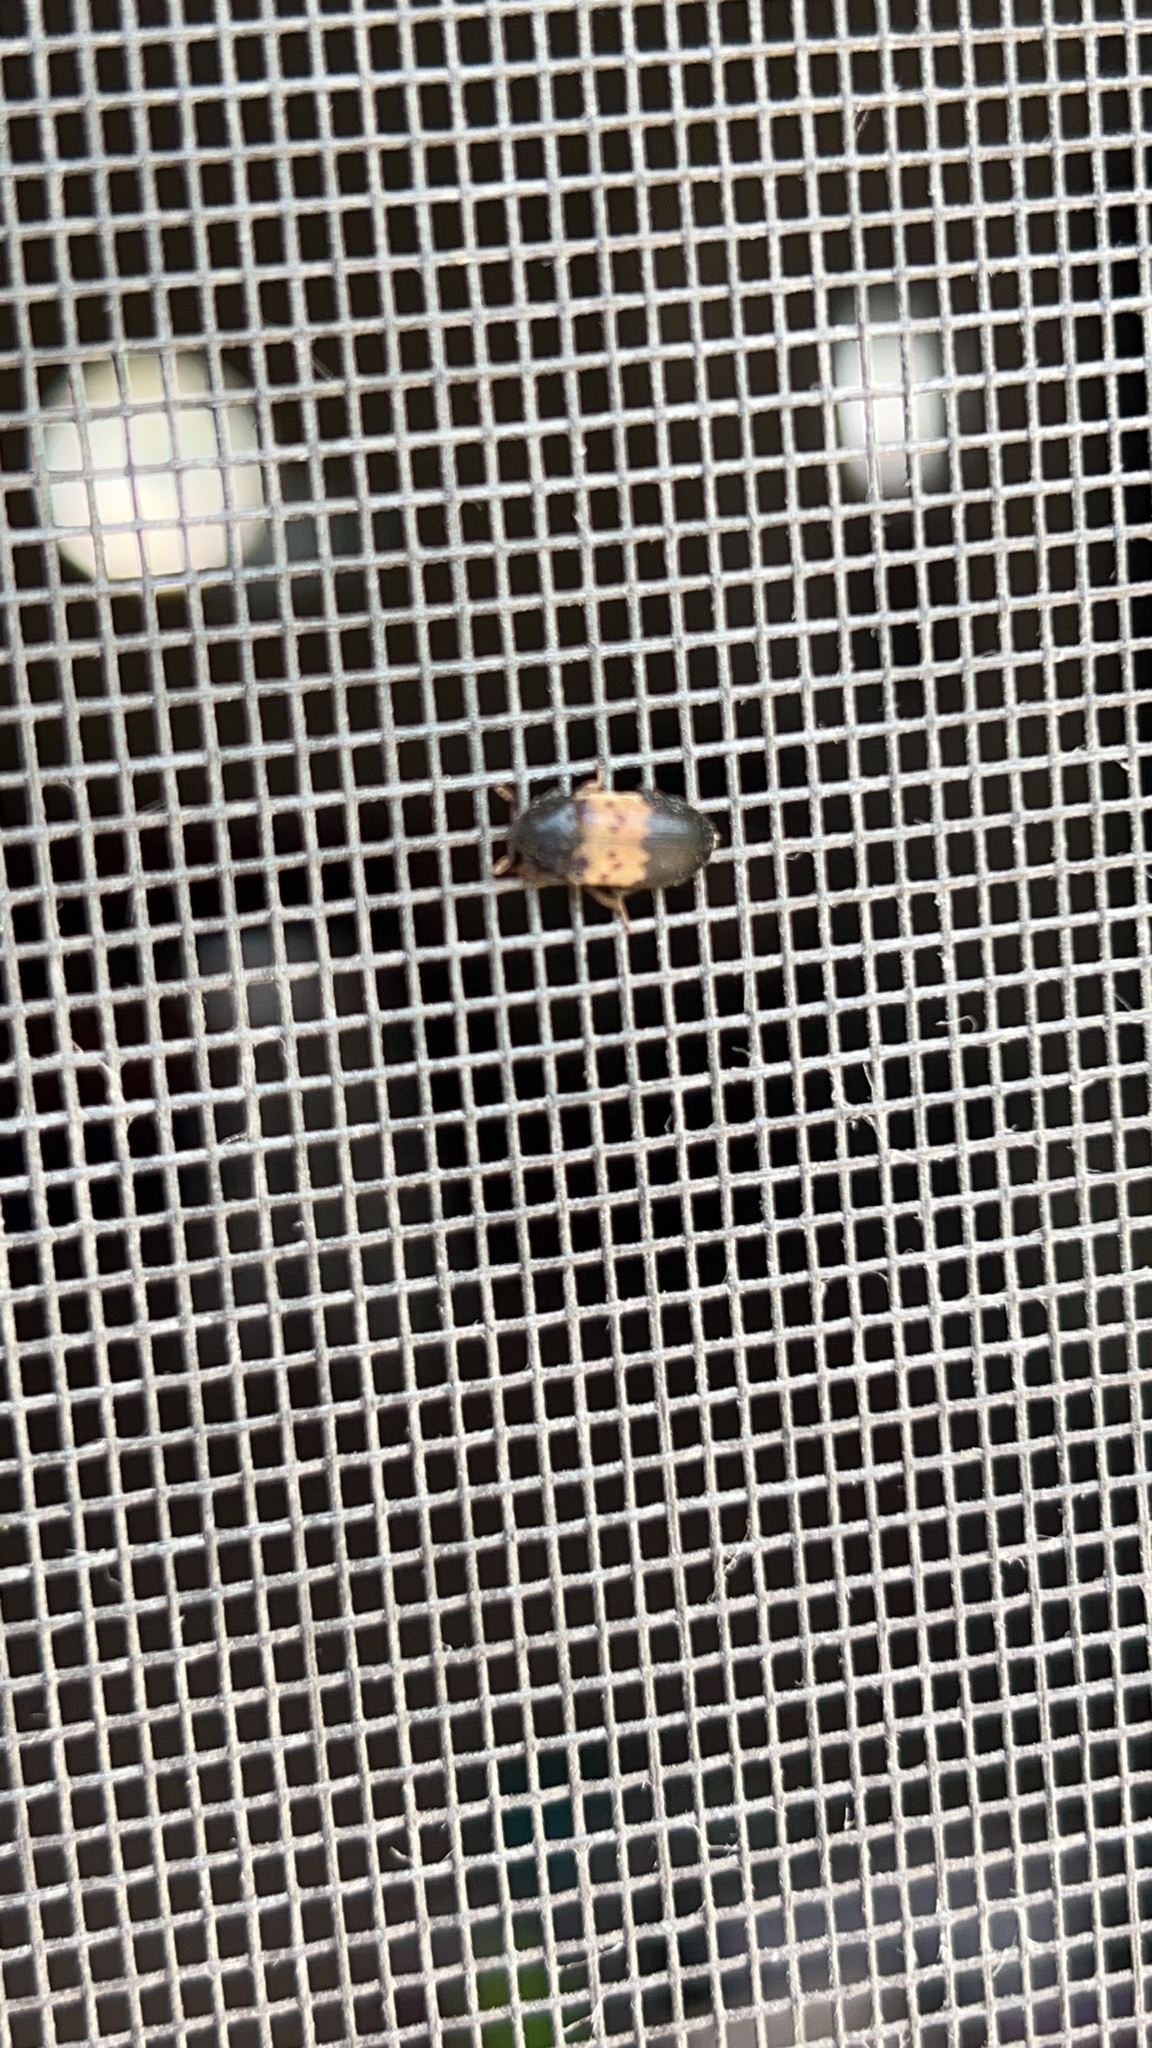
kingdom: Animalia
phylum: Arthropoda
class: Insecta
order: Coleoptera
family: Dermestidae
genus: Dermestes
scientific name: Dermestes lardarius
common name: Larder beetle
